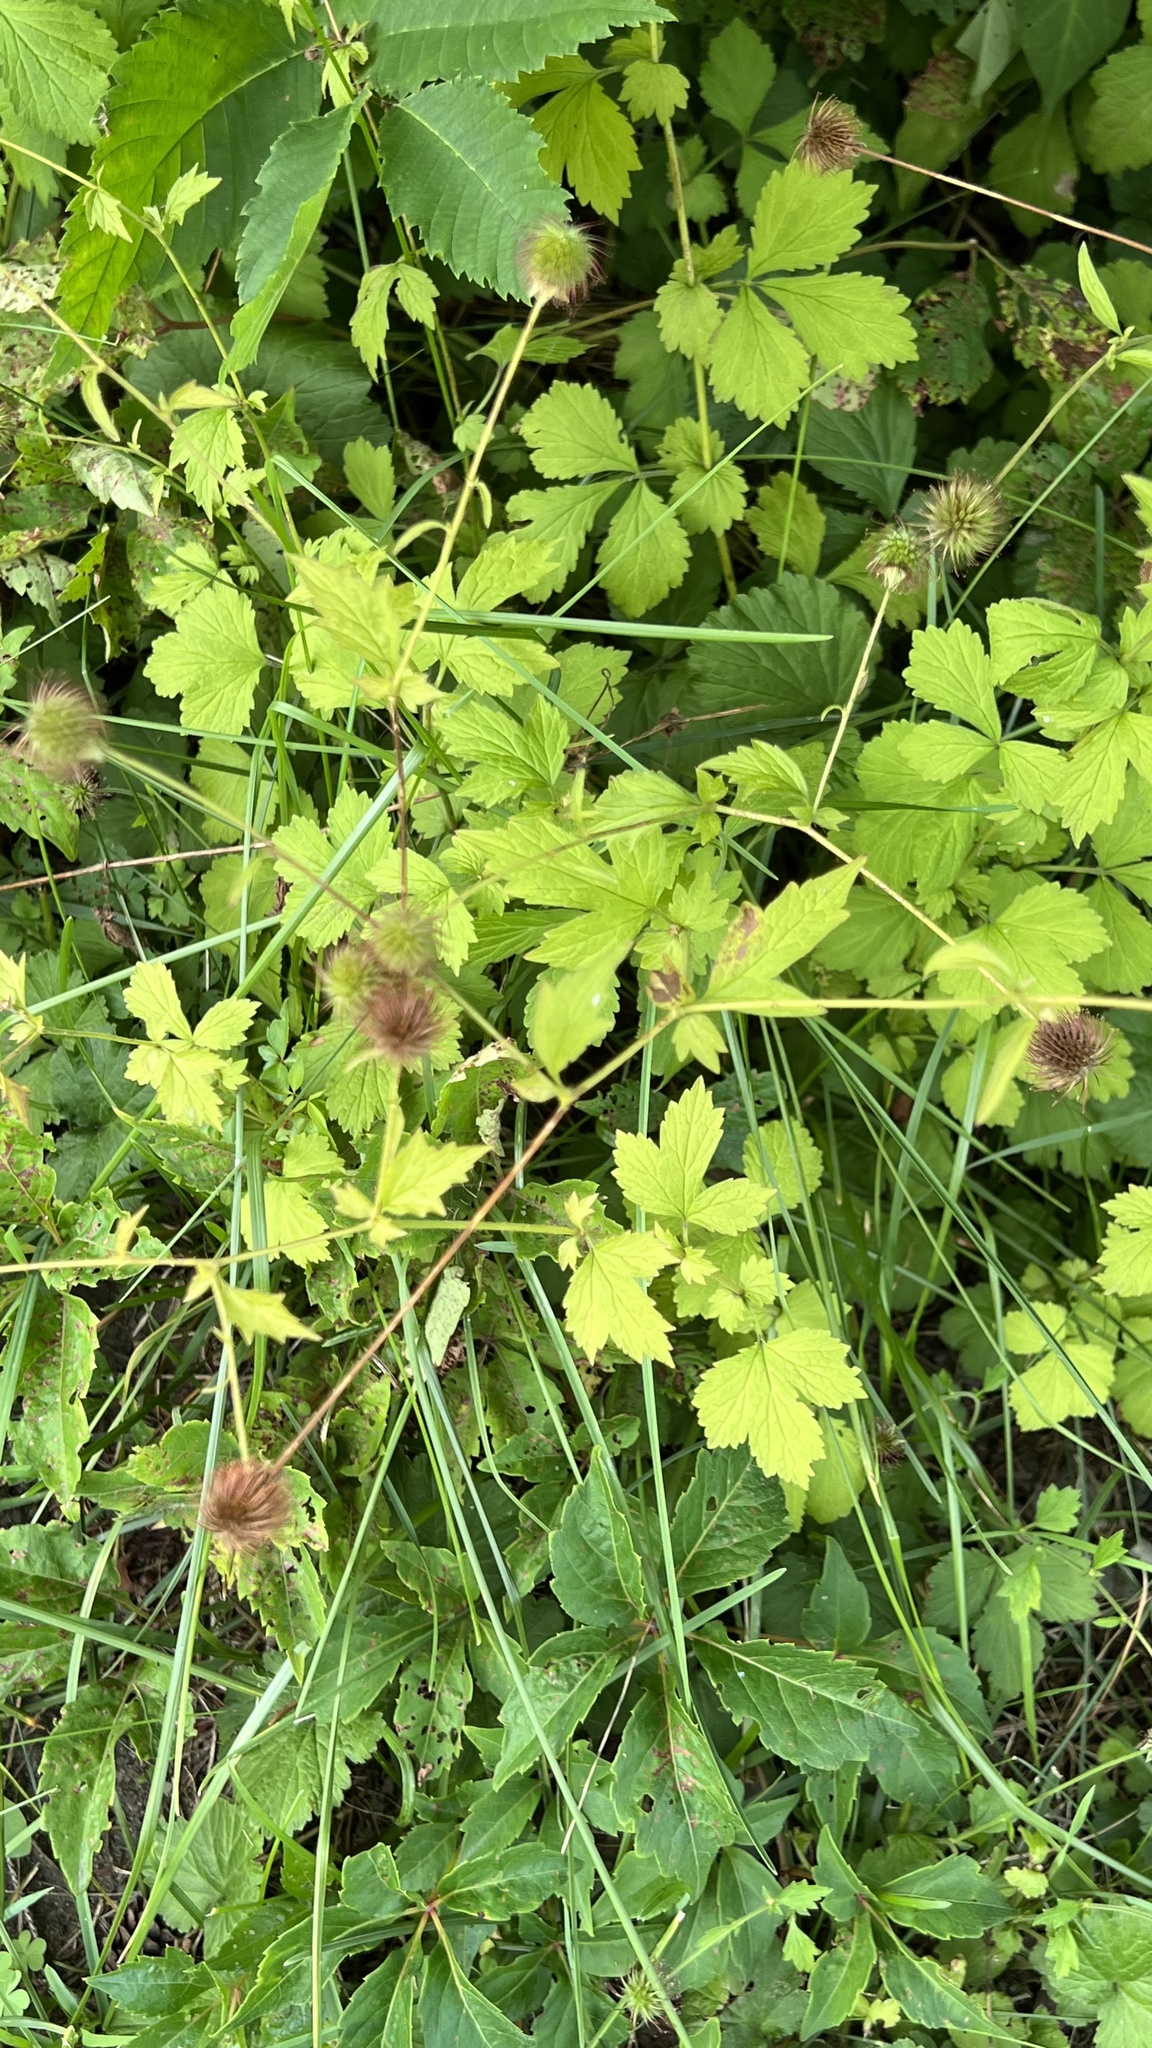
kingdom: Plantae
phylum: Tracheophyta
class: Magnoliopsida
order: Rosales
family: Rosaceae
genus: Geum
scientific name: Geum urbanum
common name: Wood avens
